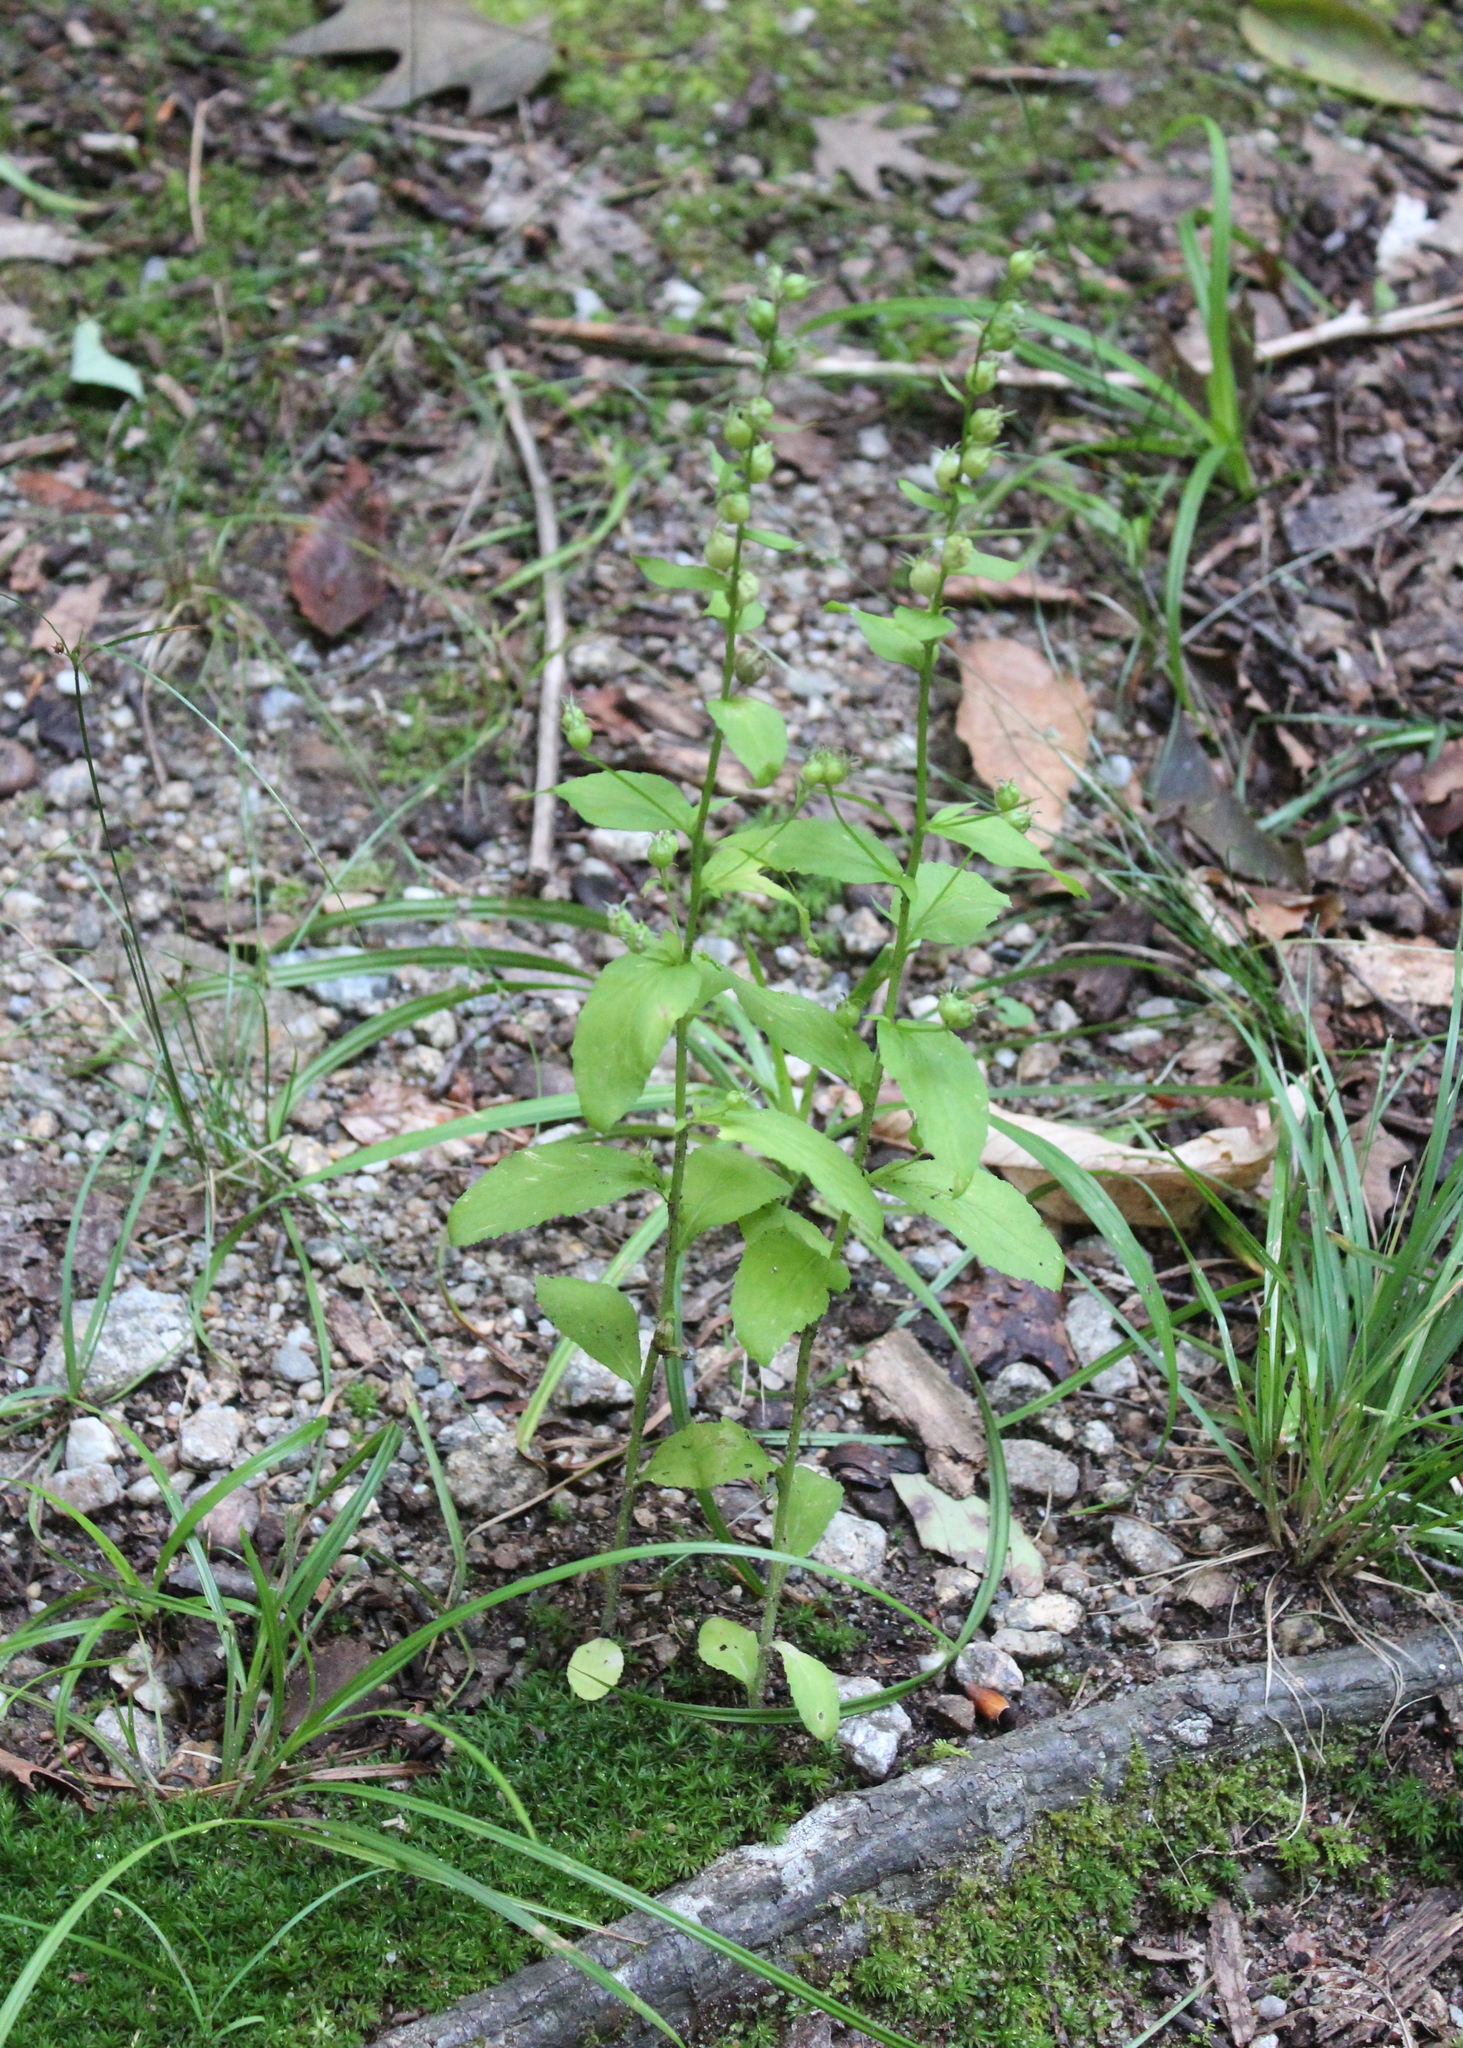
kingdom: Plantae
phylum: Tracheophyta
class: Magnoliopsida
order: Asterales
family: Campanulaceae
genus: Lobelia
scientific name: Lobelia inflata
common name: Indian tobacco
